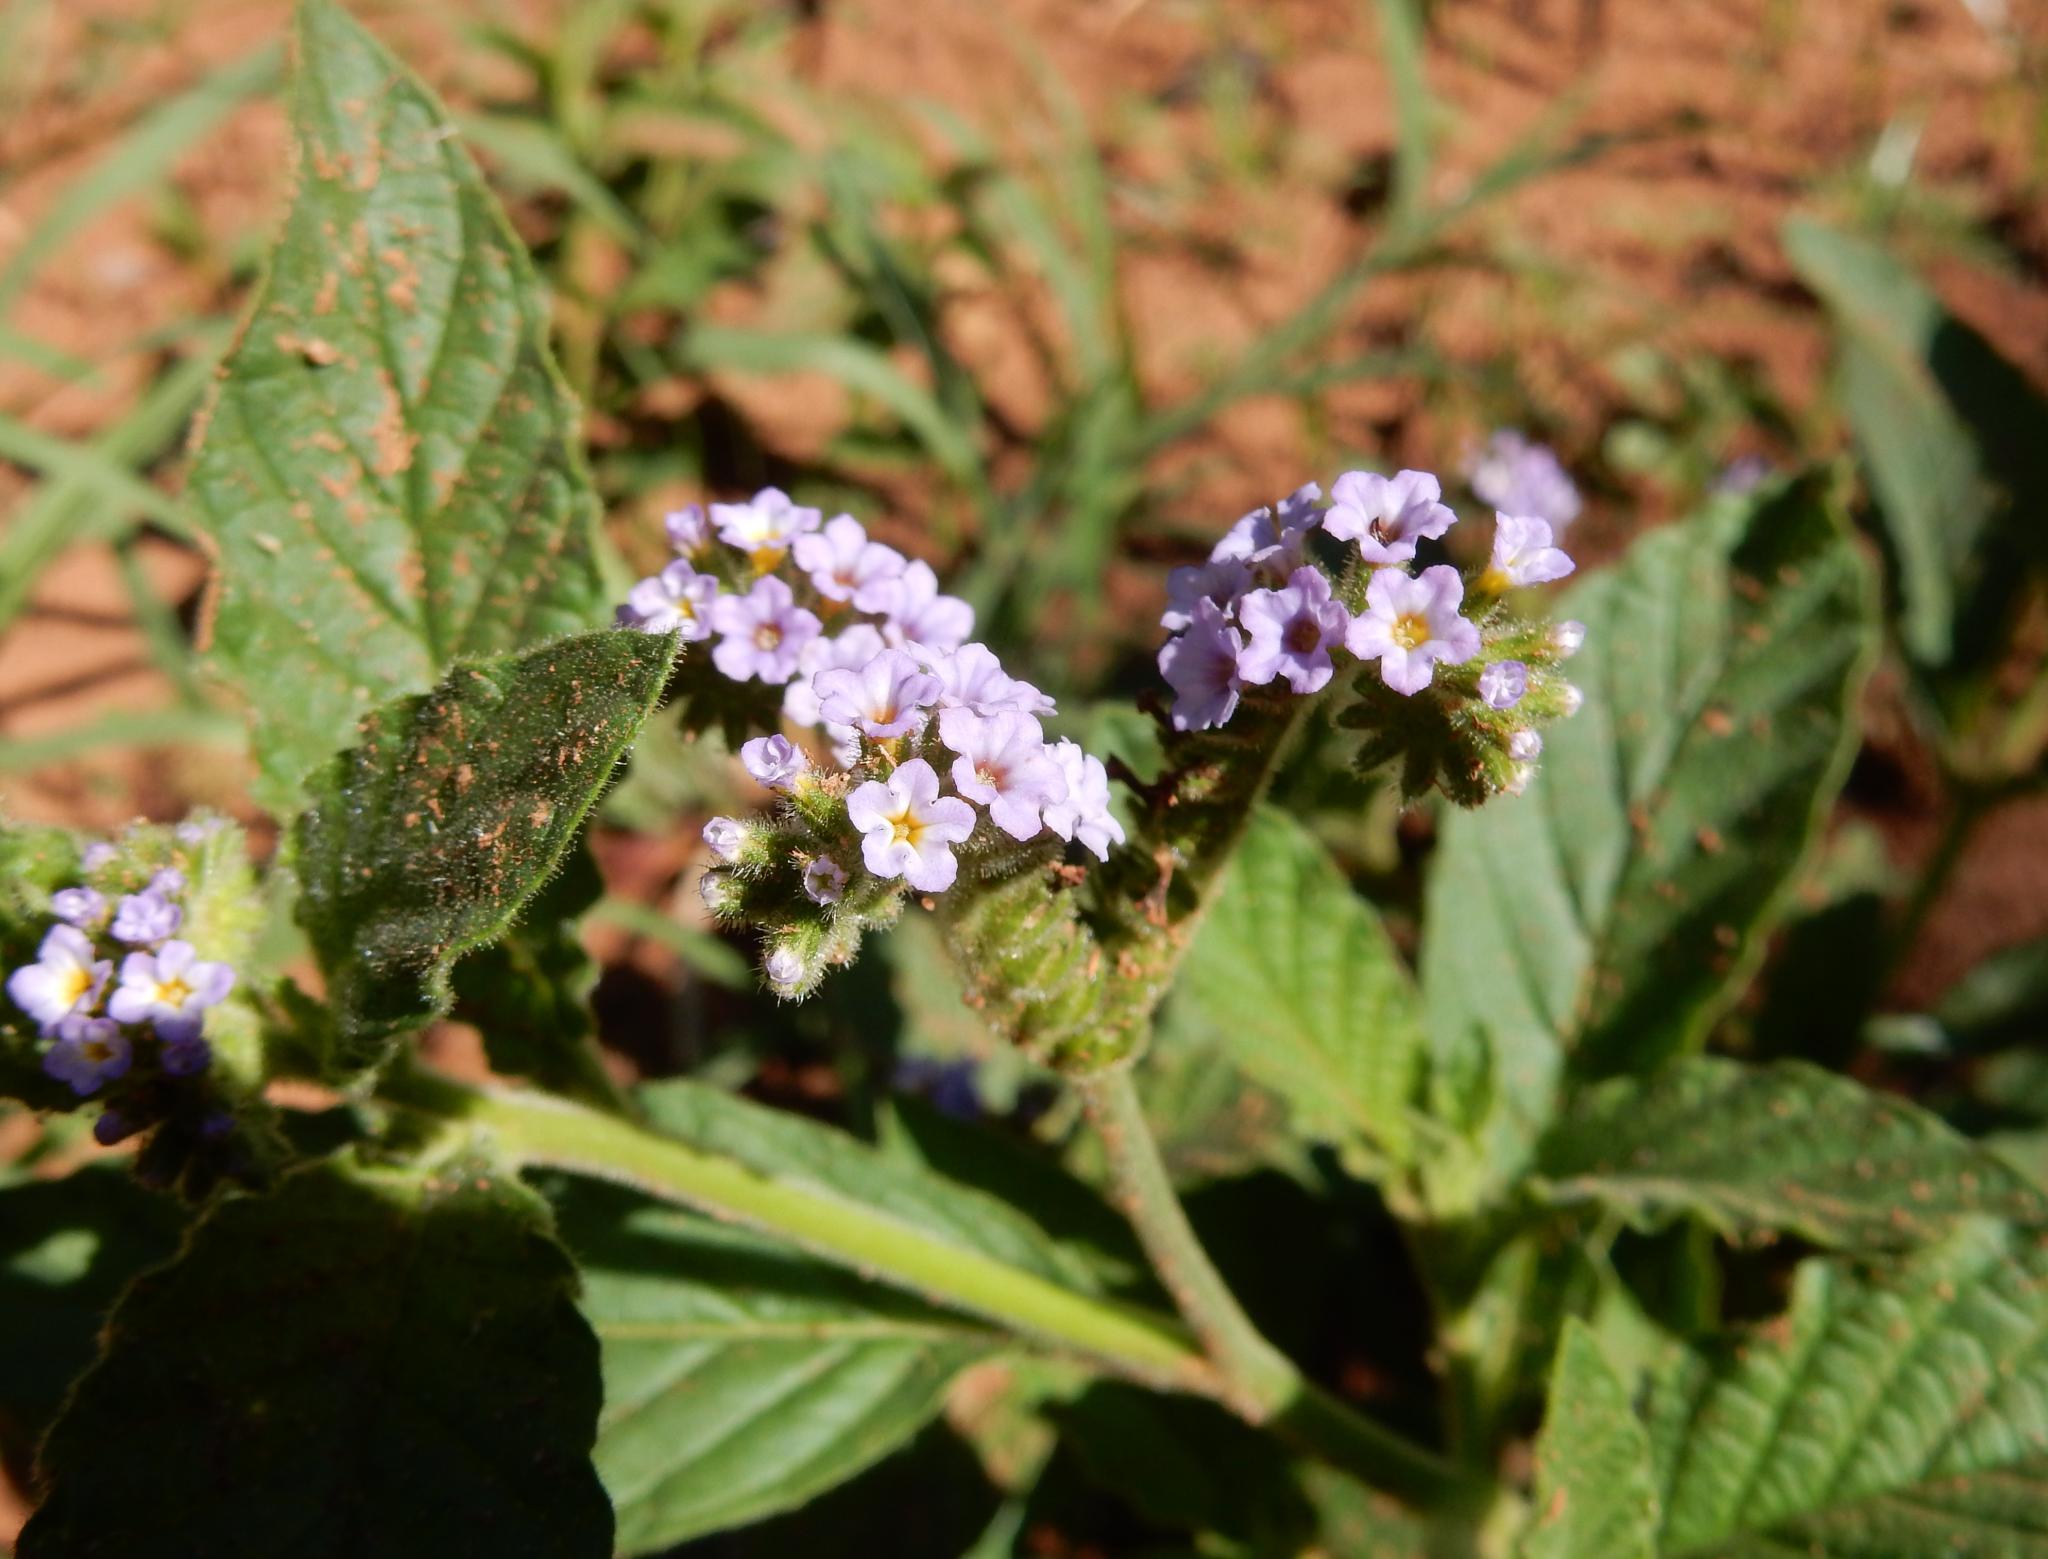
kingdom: Plantae
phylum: Tracheophyta
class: Magnoliopsida
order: Boraginales
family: Heliotropiaceae
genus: Heliotropium
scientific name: Heliotropium amplexicaule
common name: Clasping heliotrope
